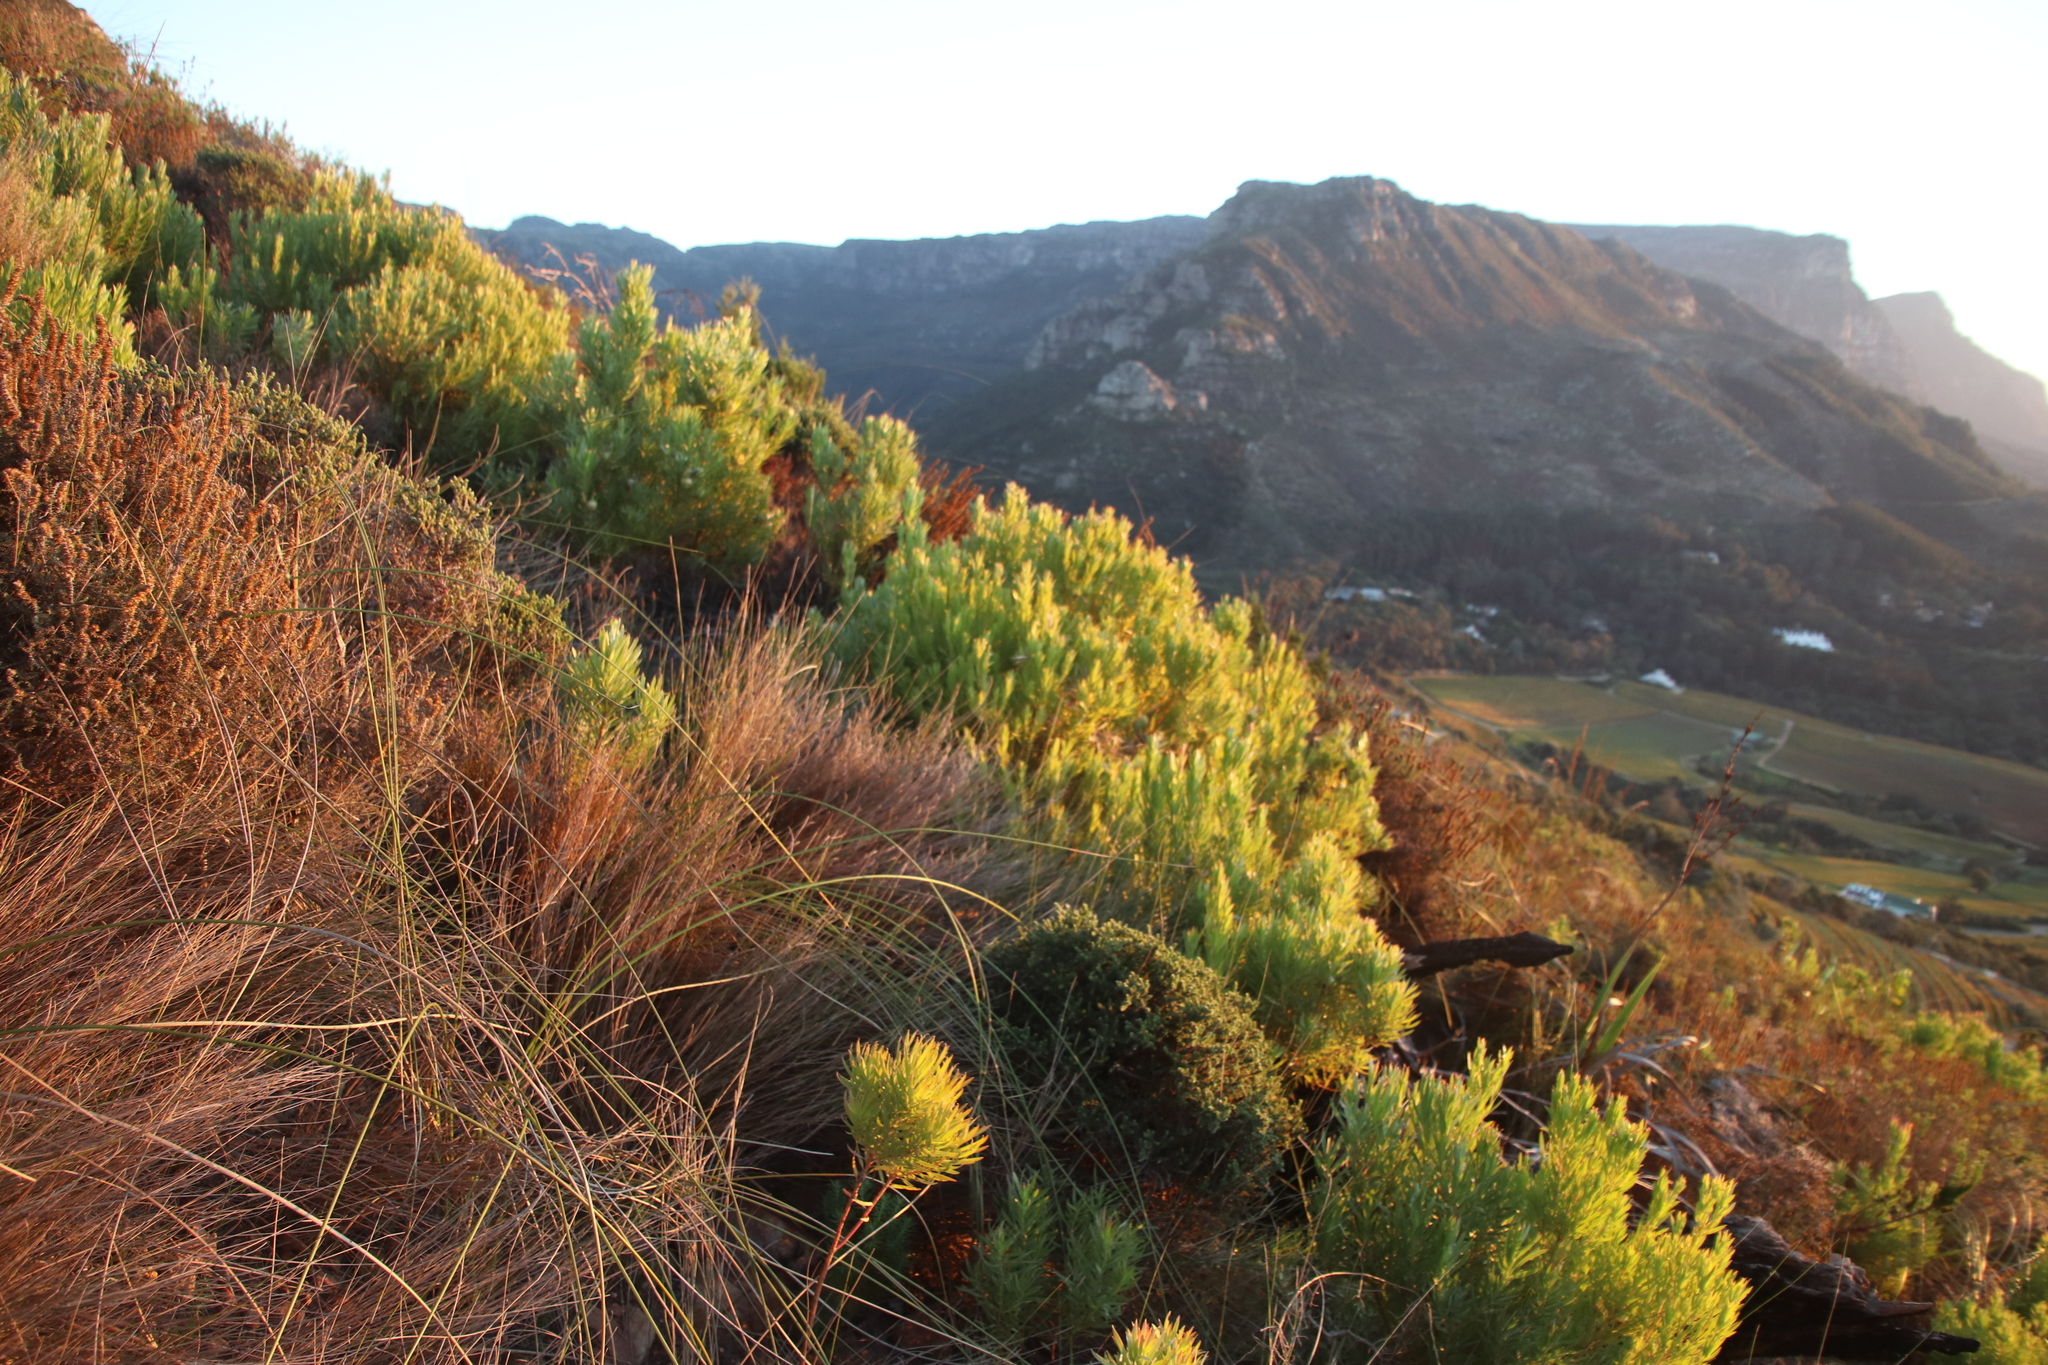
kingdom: Plantae
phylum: Tracheophyta
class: Magnoliopsida
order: Proteales
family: Proteaceae
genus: Leucadendron
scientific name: Leucadendron xanthoconus
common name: Sickle-leaf conebush
